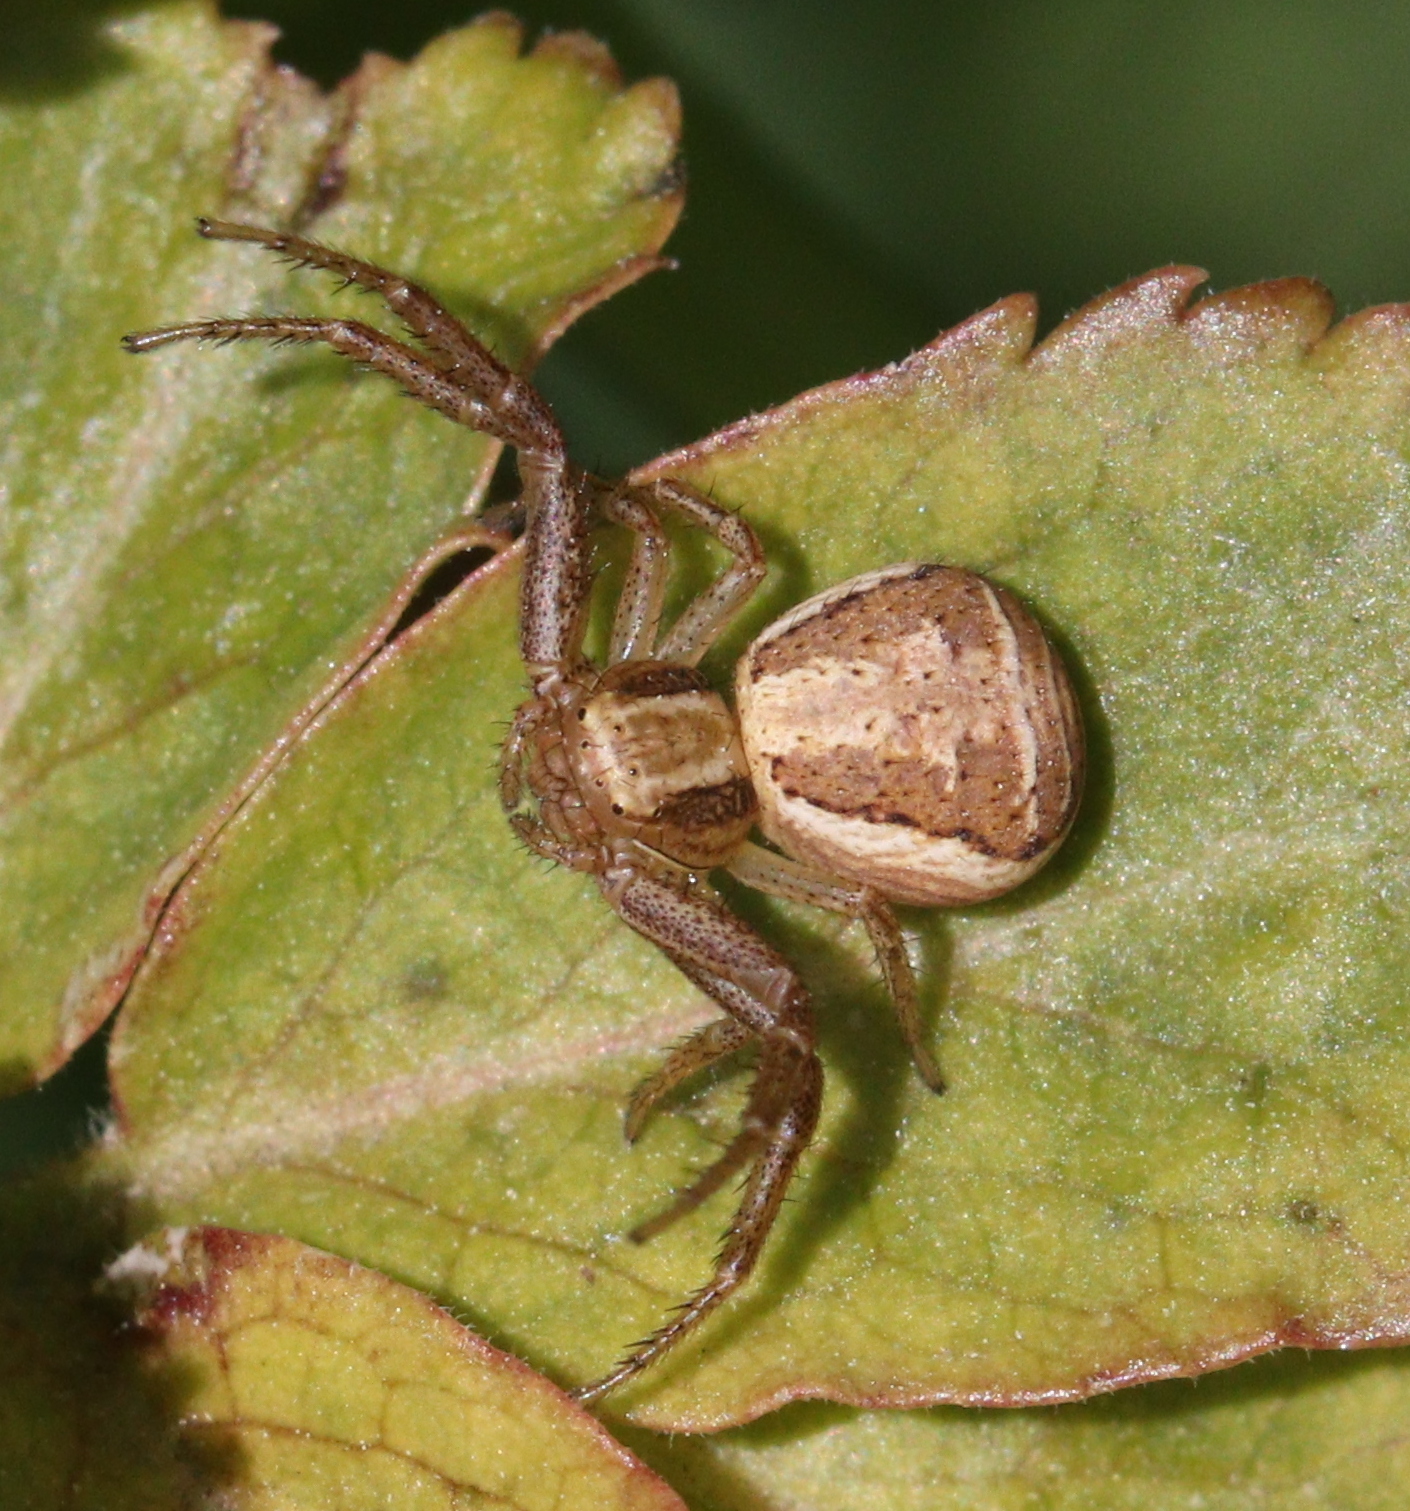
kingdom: Animalia
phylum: Arthropoda
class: Arachnida
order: Araneae
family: Thomisidae
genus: Xysticus
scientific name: Xysticus ulmi
